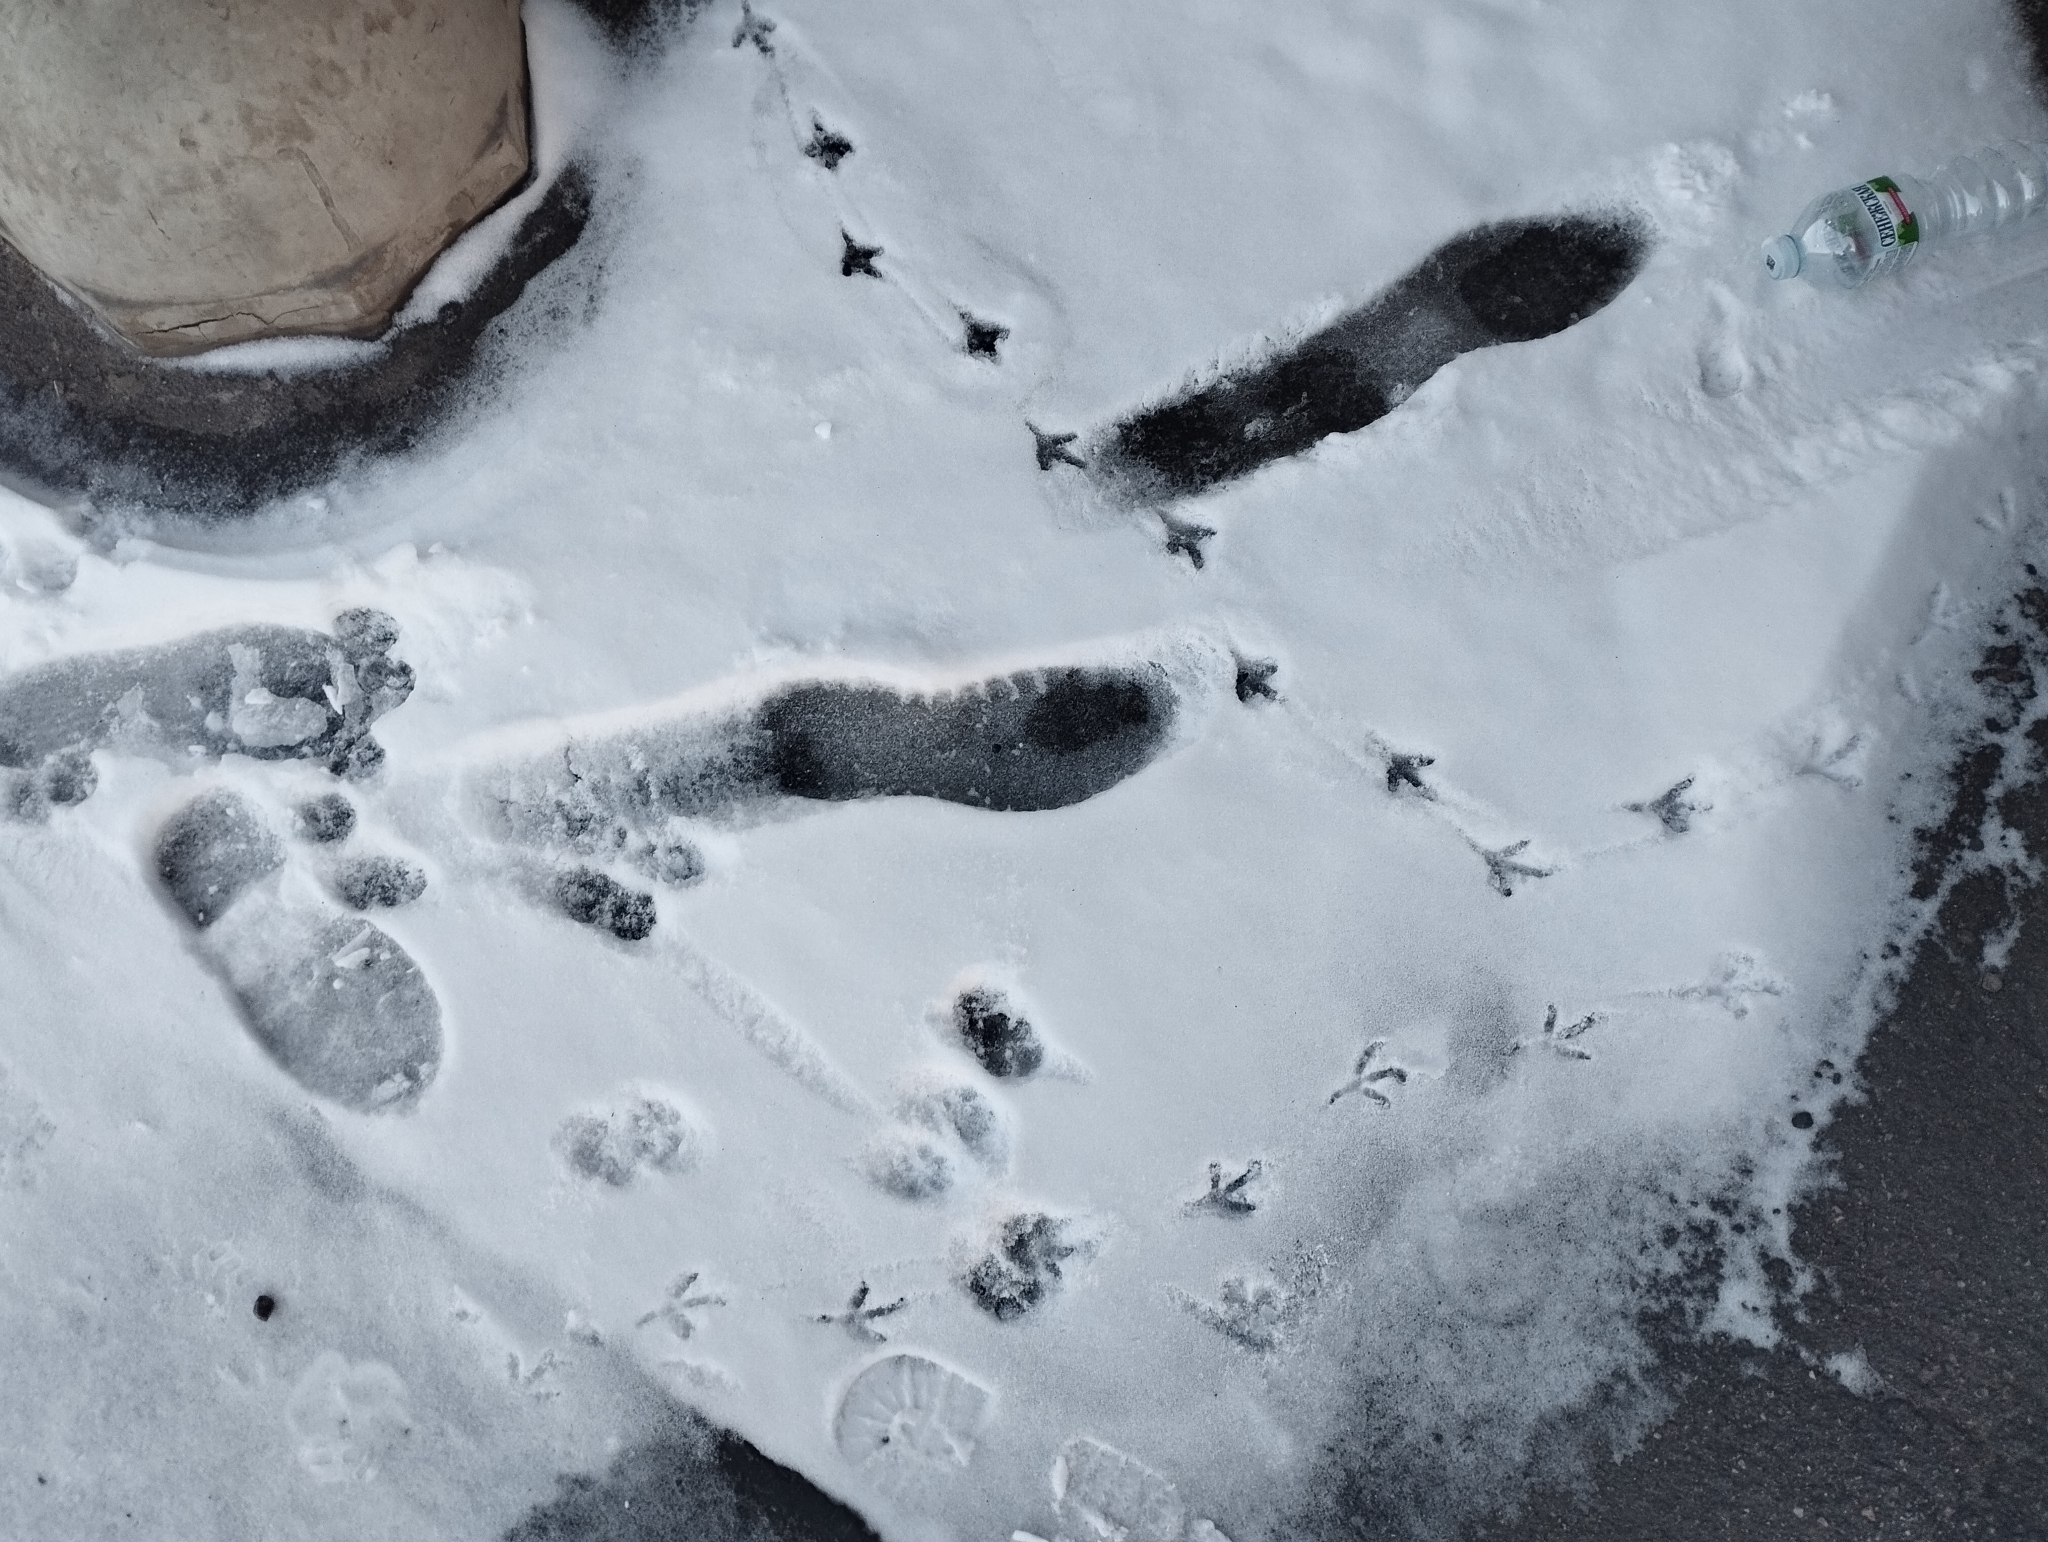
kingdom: Animalia
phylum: Chordata
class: Aves
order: Columbiformes
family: Columbidae
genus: Columba
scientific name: Columba livia
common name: Rock pigeon
